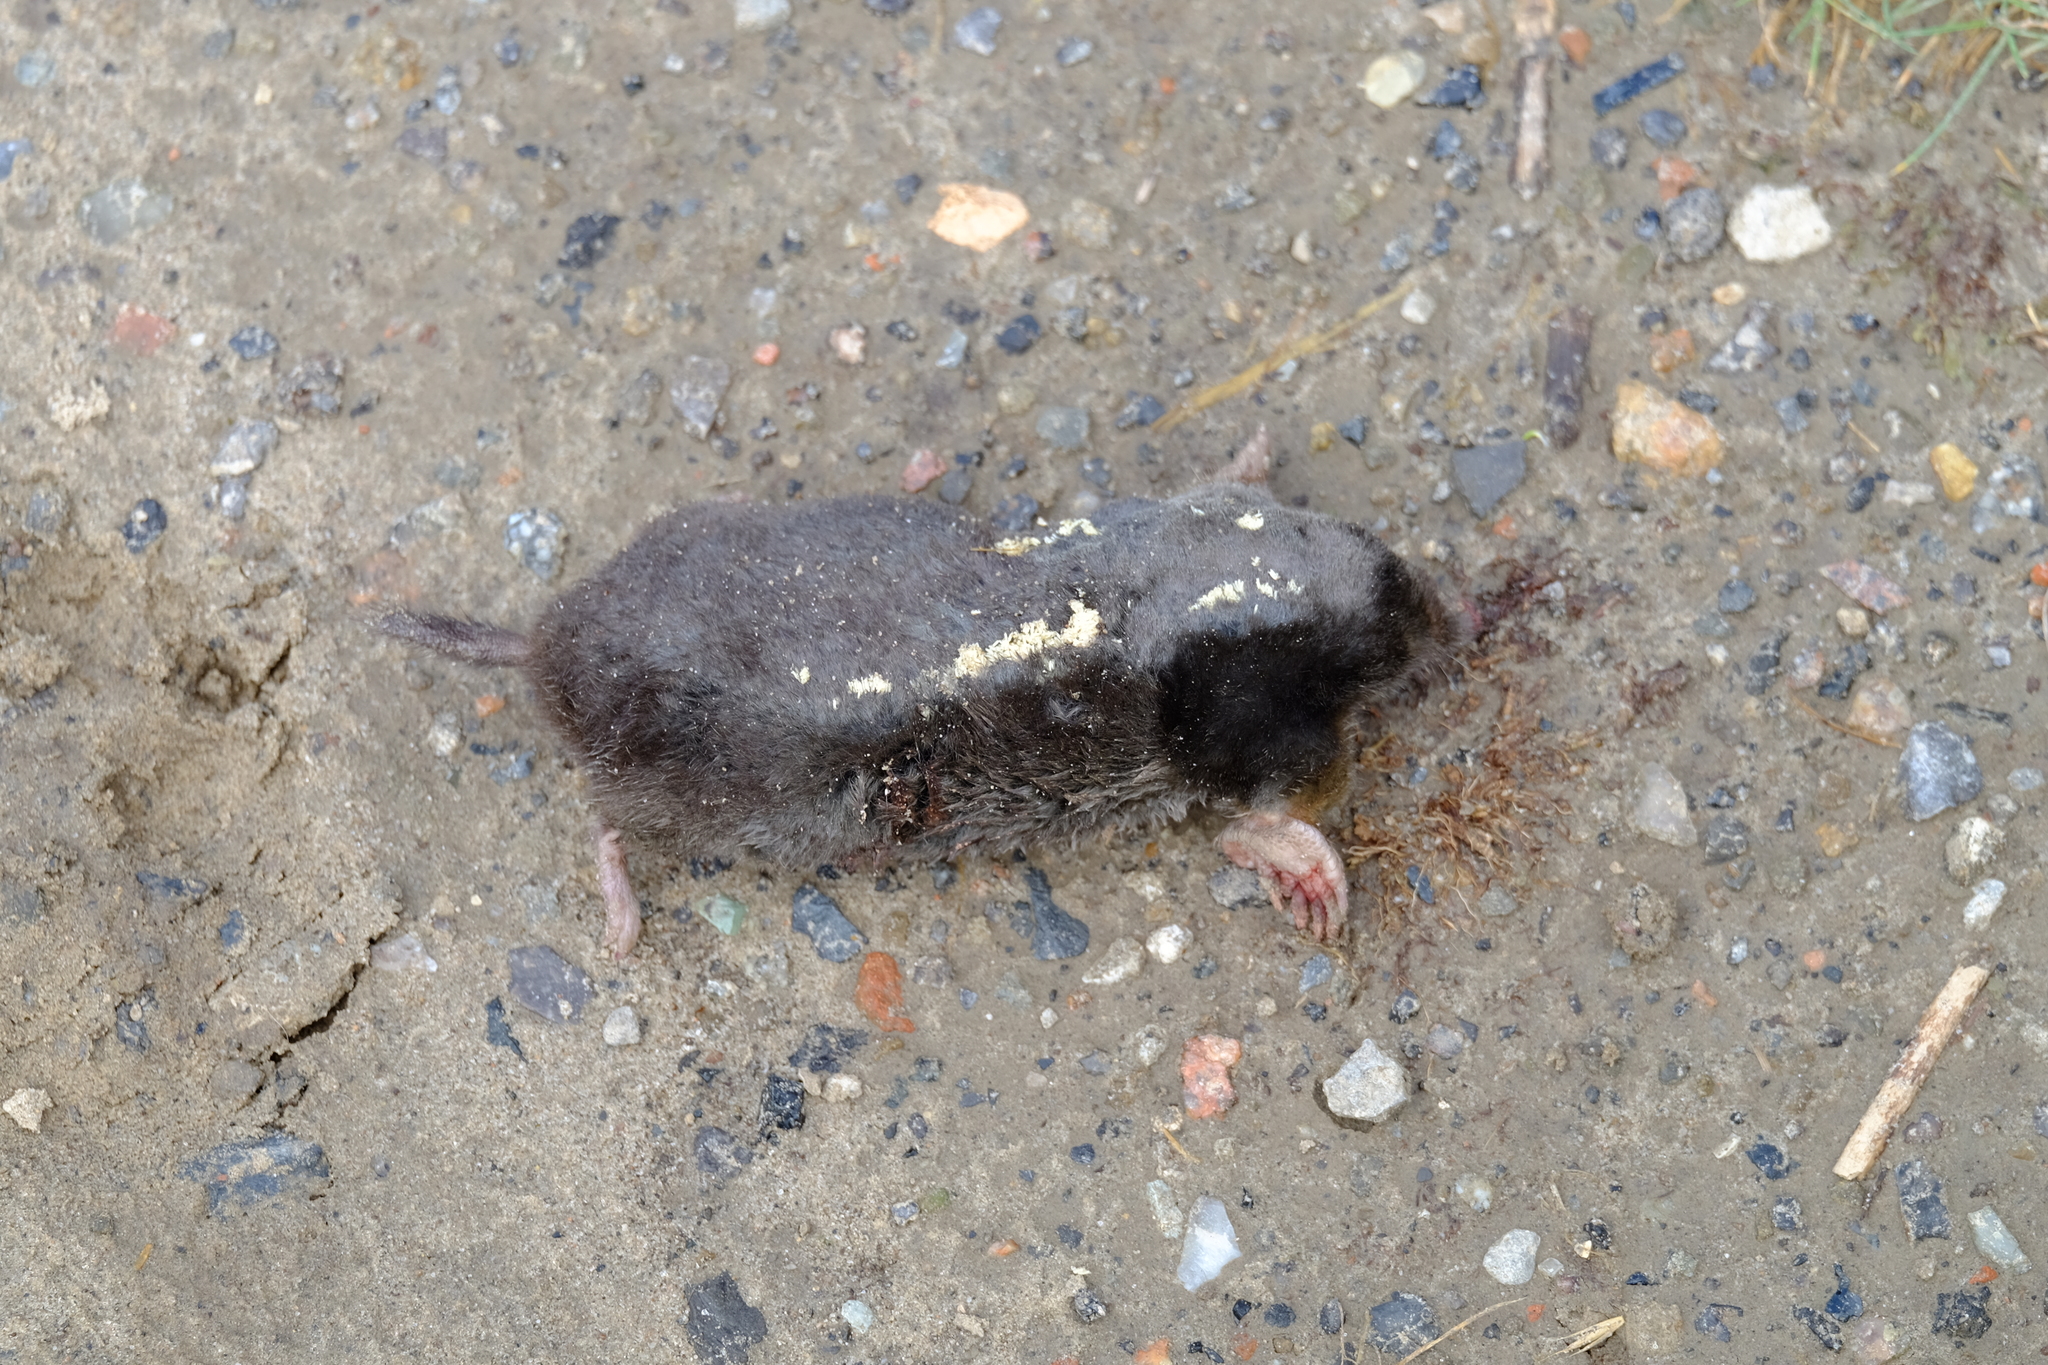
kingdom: Animalia
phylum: Chordata
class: Mammalia
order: Soricomorpha
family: Talpidae
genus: Talpa
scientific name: Talpa europaea
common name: European mole
